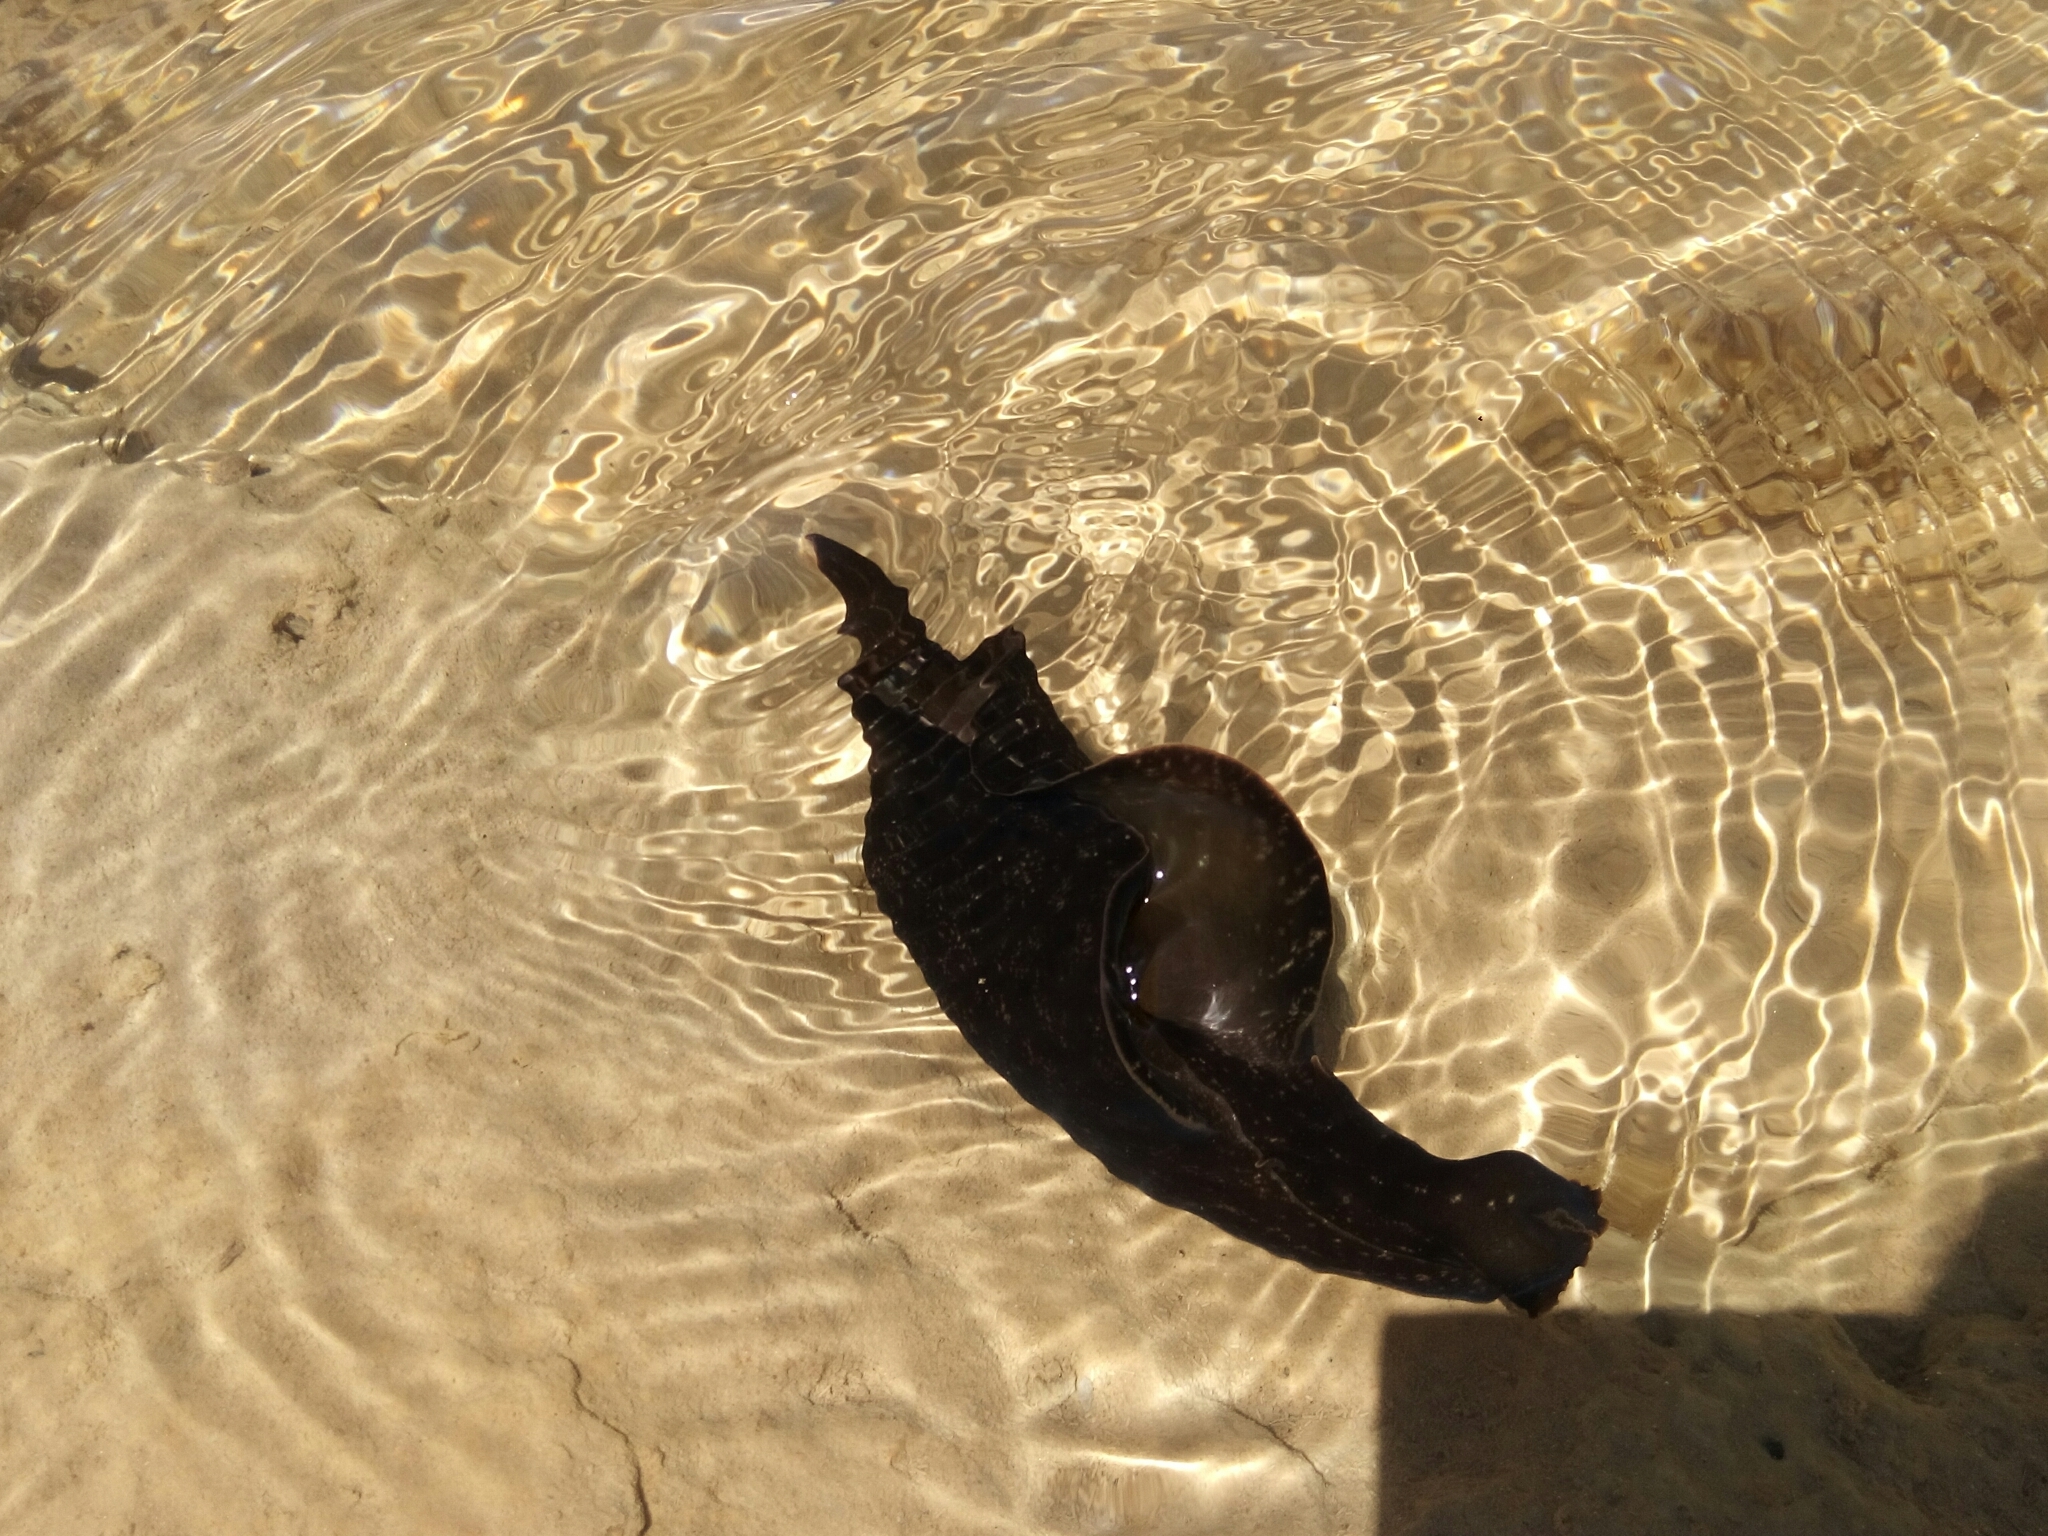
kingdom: Animalia
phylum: Mollusca
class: Gastropoda
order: Aplysiida
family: Aplysiidae
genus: Aplysia
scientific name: Aplysia fasciata
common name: Banded sea hare
